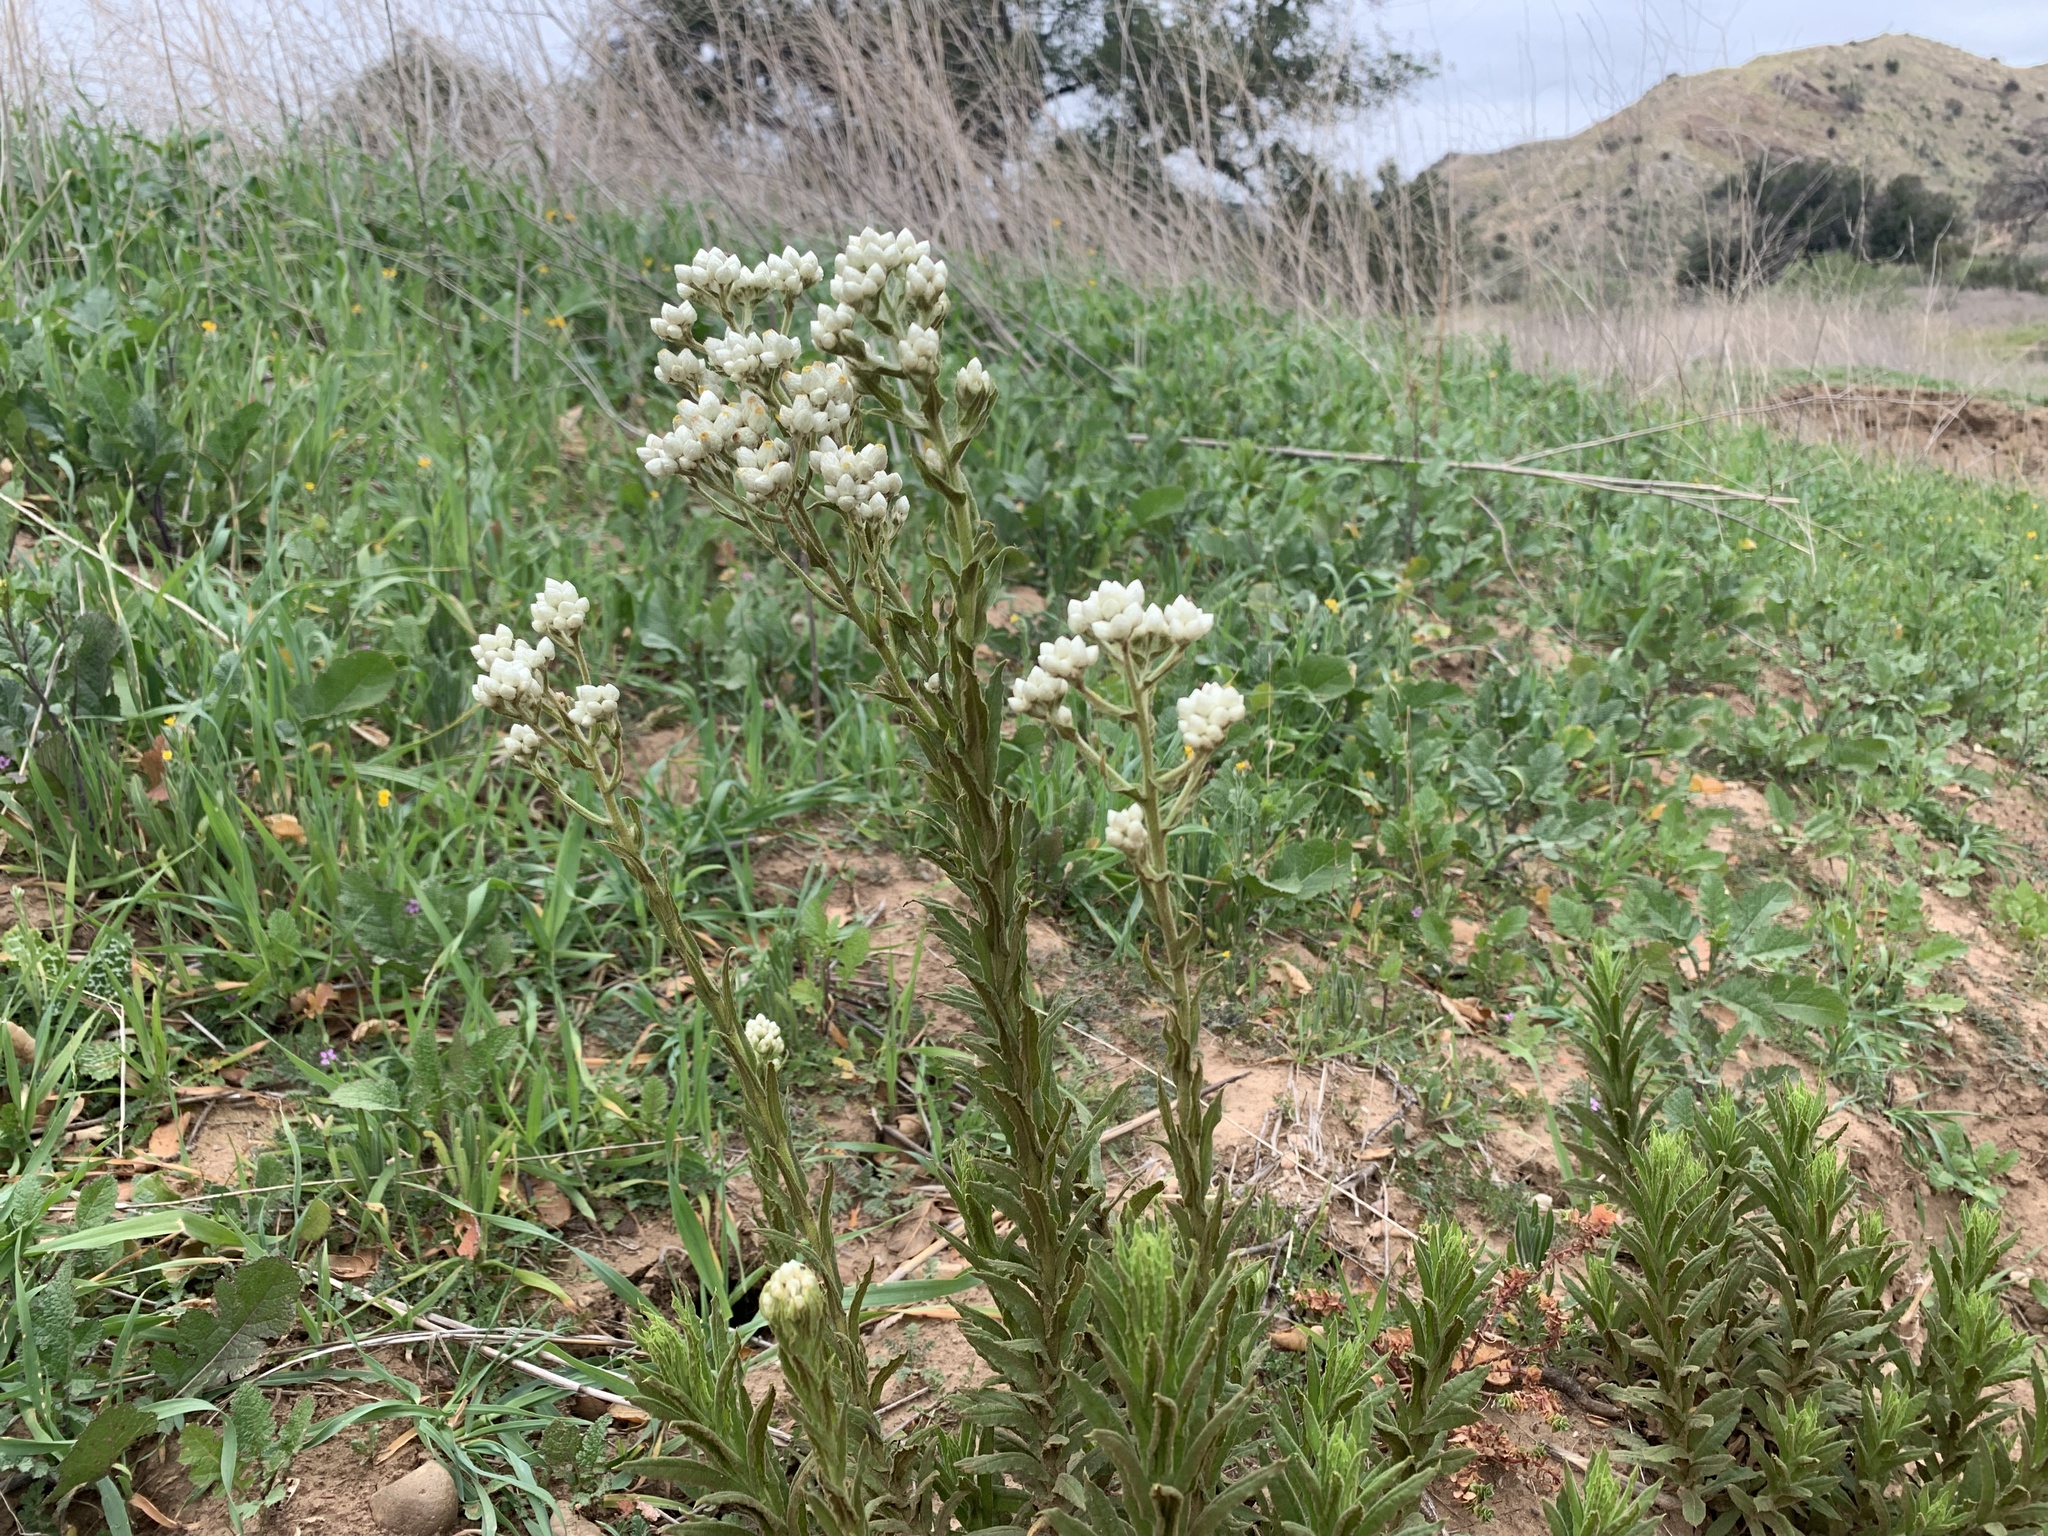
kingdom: Plantae
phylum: Tracheophyta
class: Magnoliopsida
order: Asterales
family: Asteraceae
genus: Pseudognaphalium
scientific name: Pseudognaphalium californicum
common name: California rabbit-tobacco
